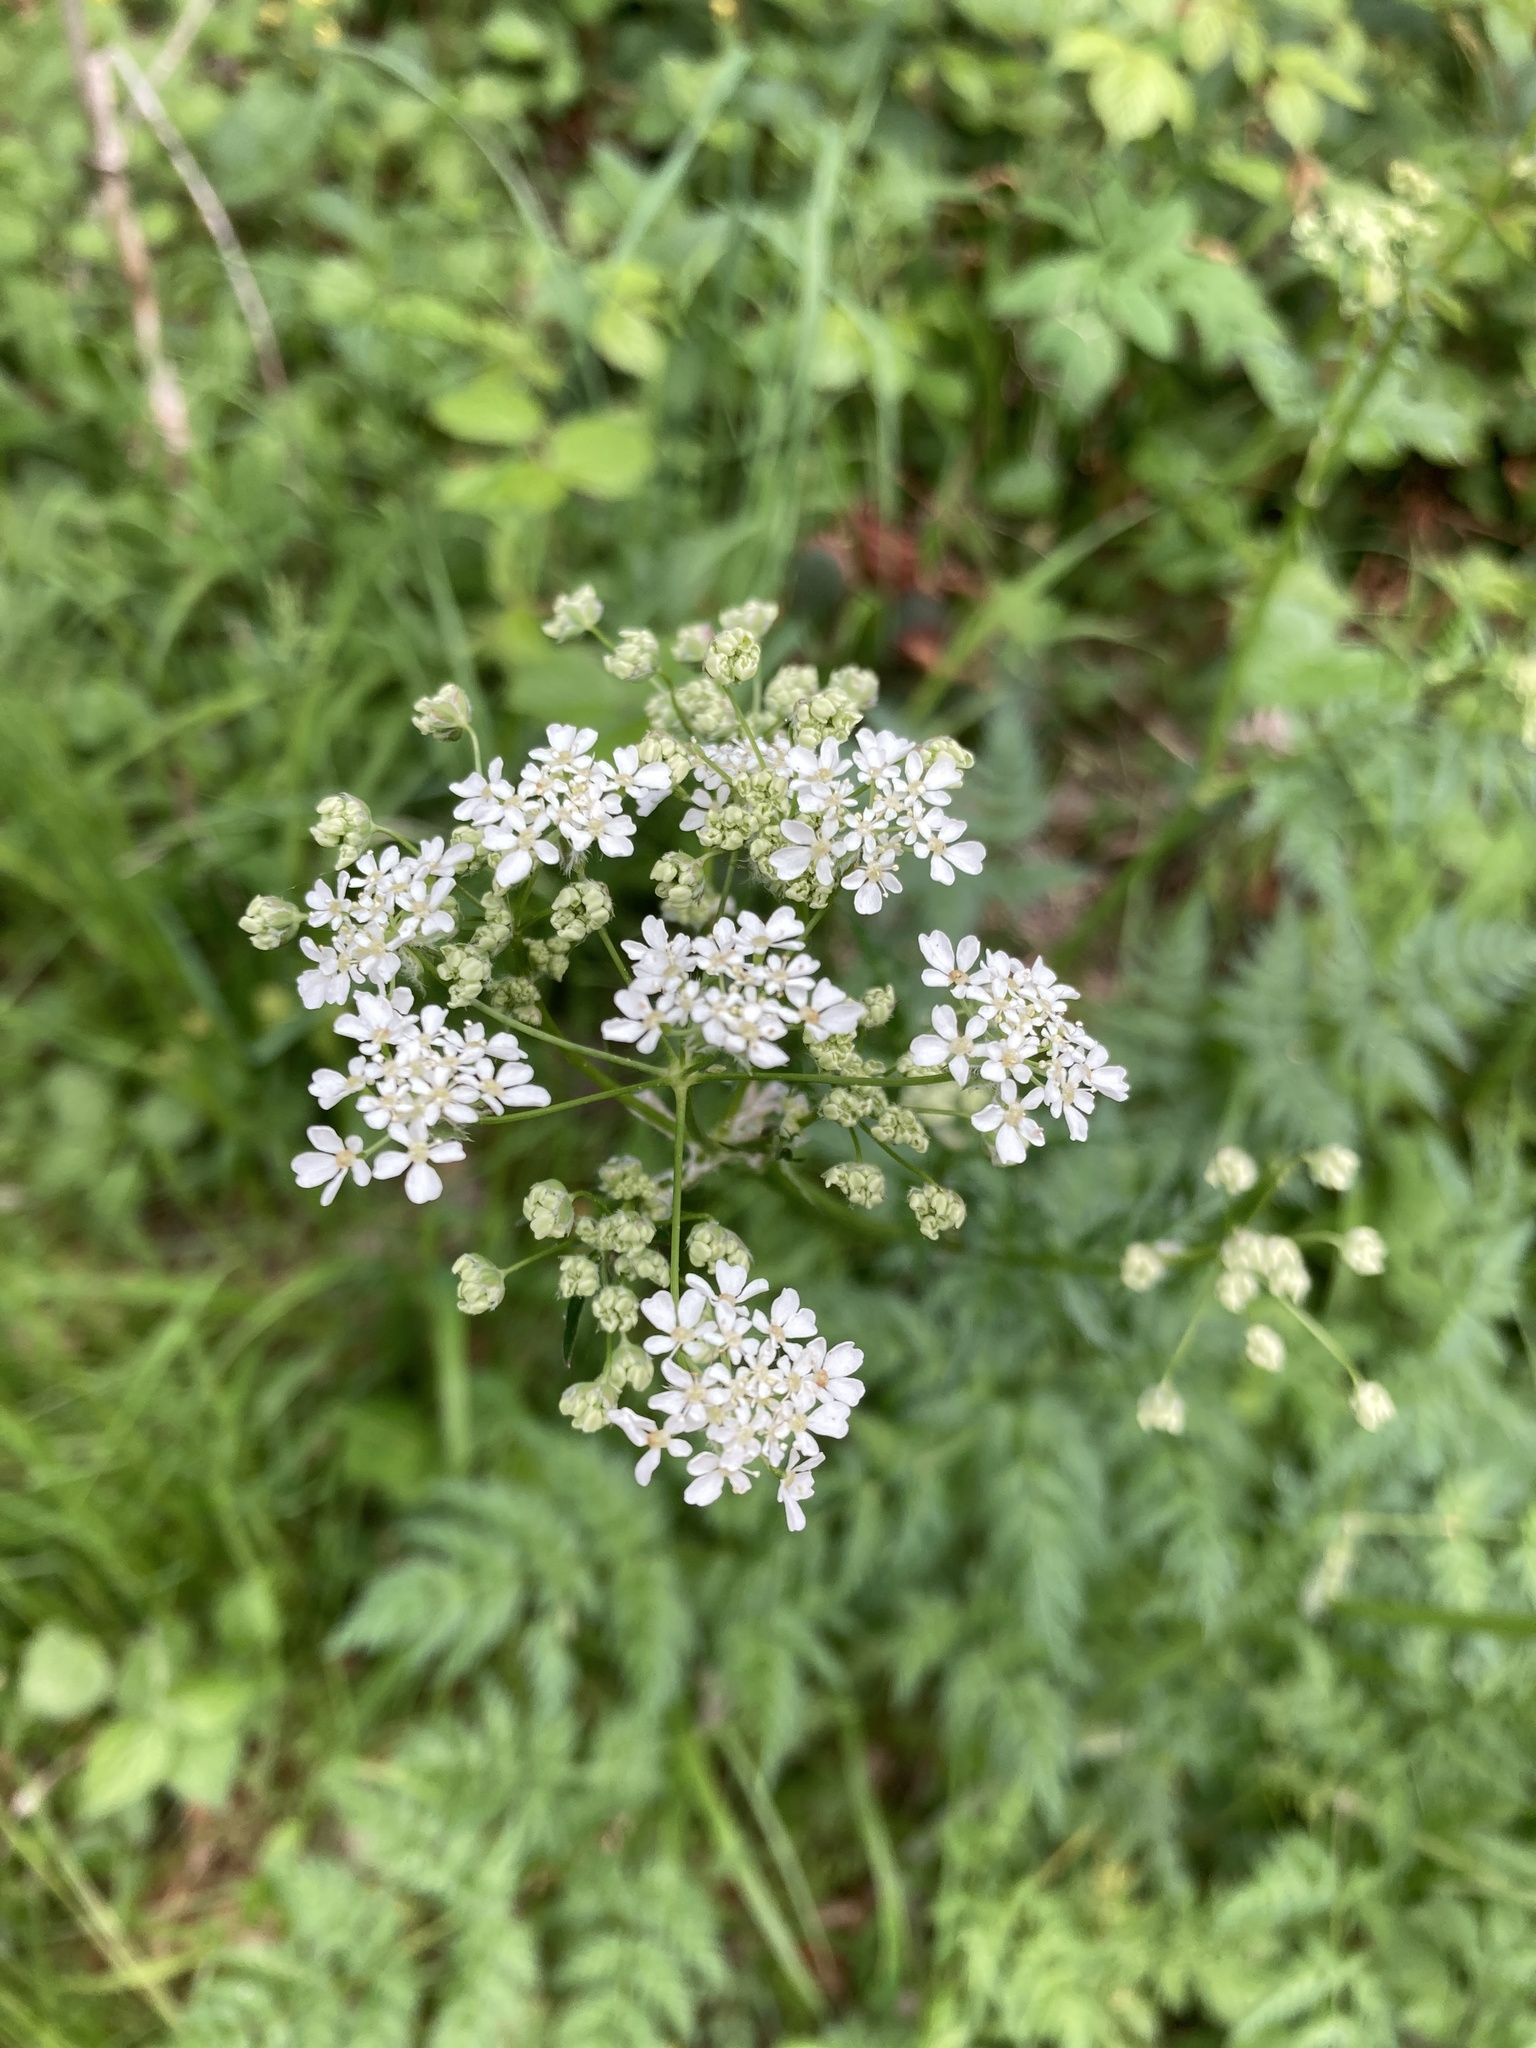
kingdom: Plantae
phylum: Tracheophyta
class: Magnoliopsida
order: Apiales
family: Apiaceae
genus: Anthriscus
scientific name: Anthriscus sylvestris
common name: Cow parsley
